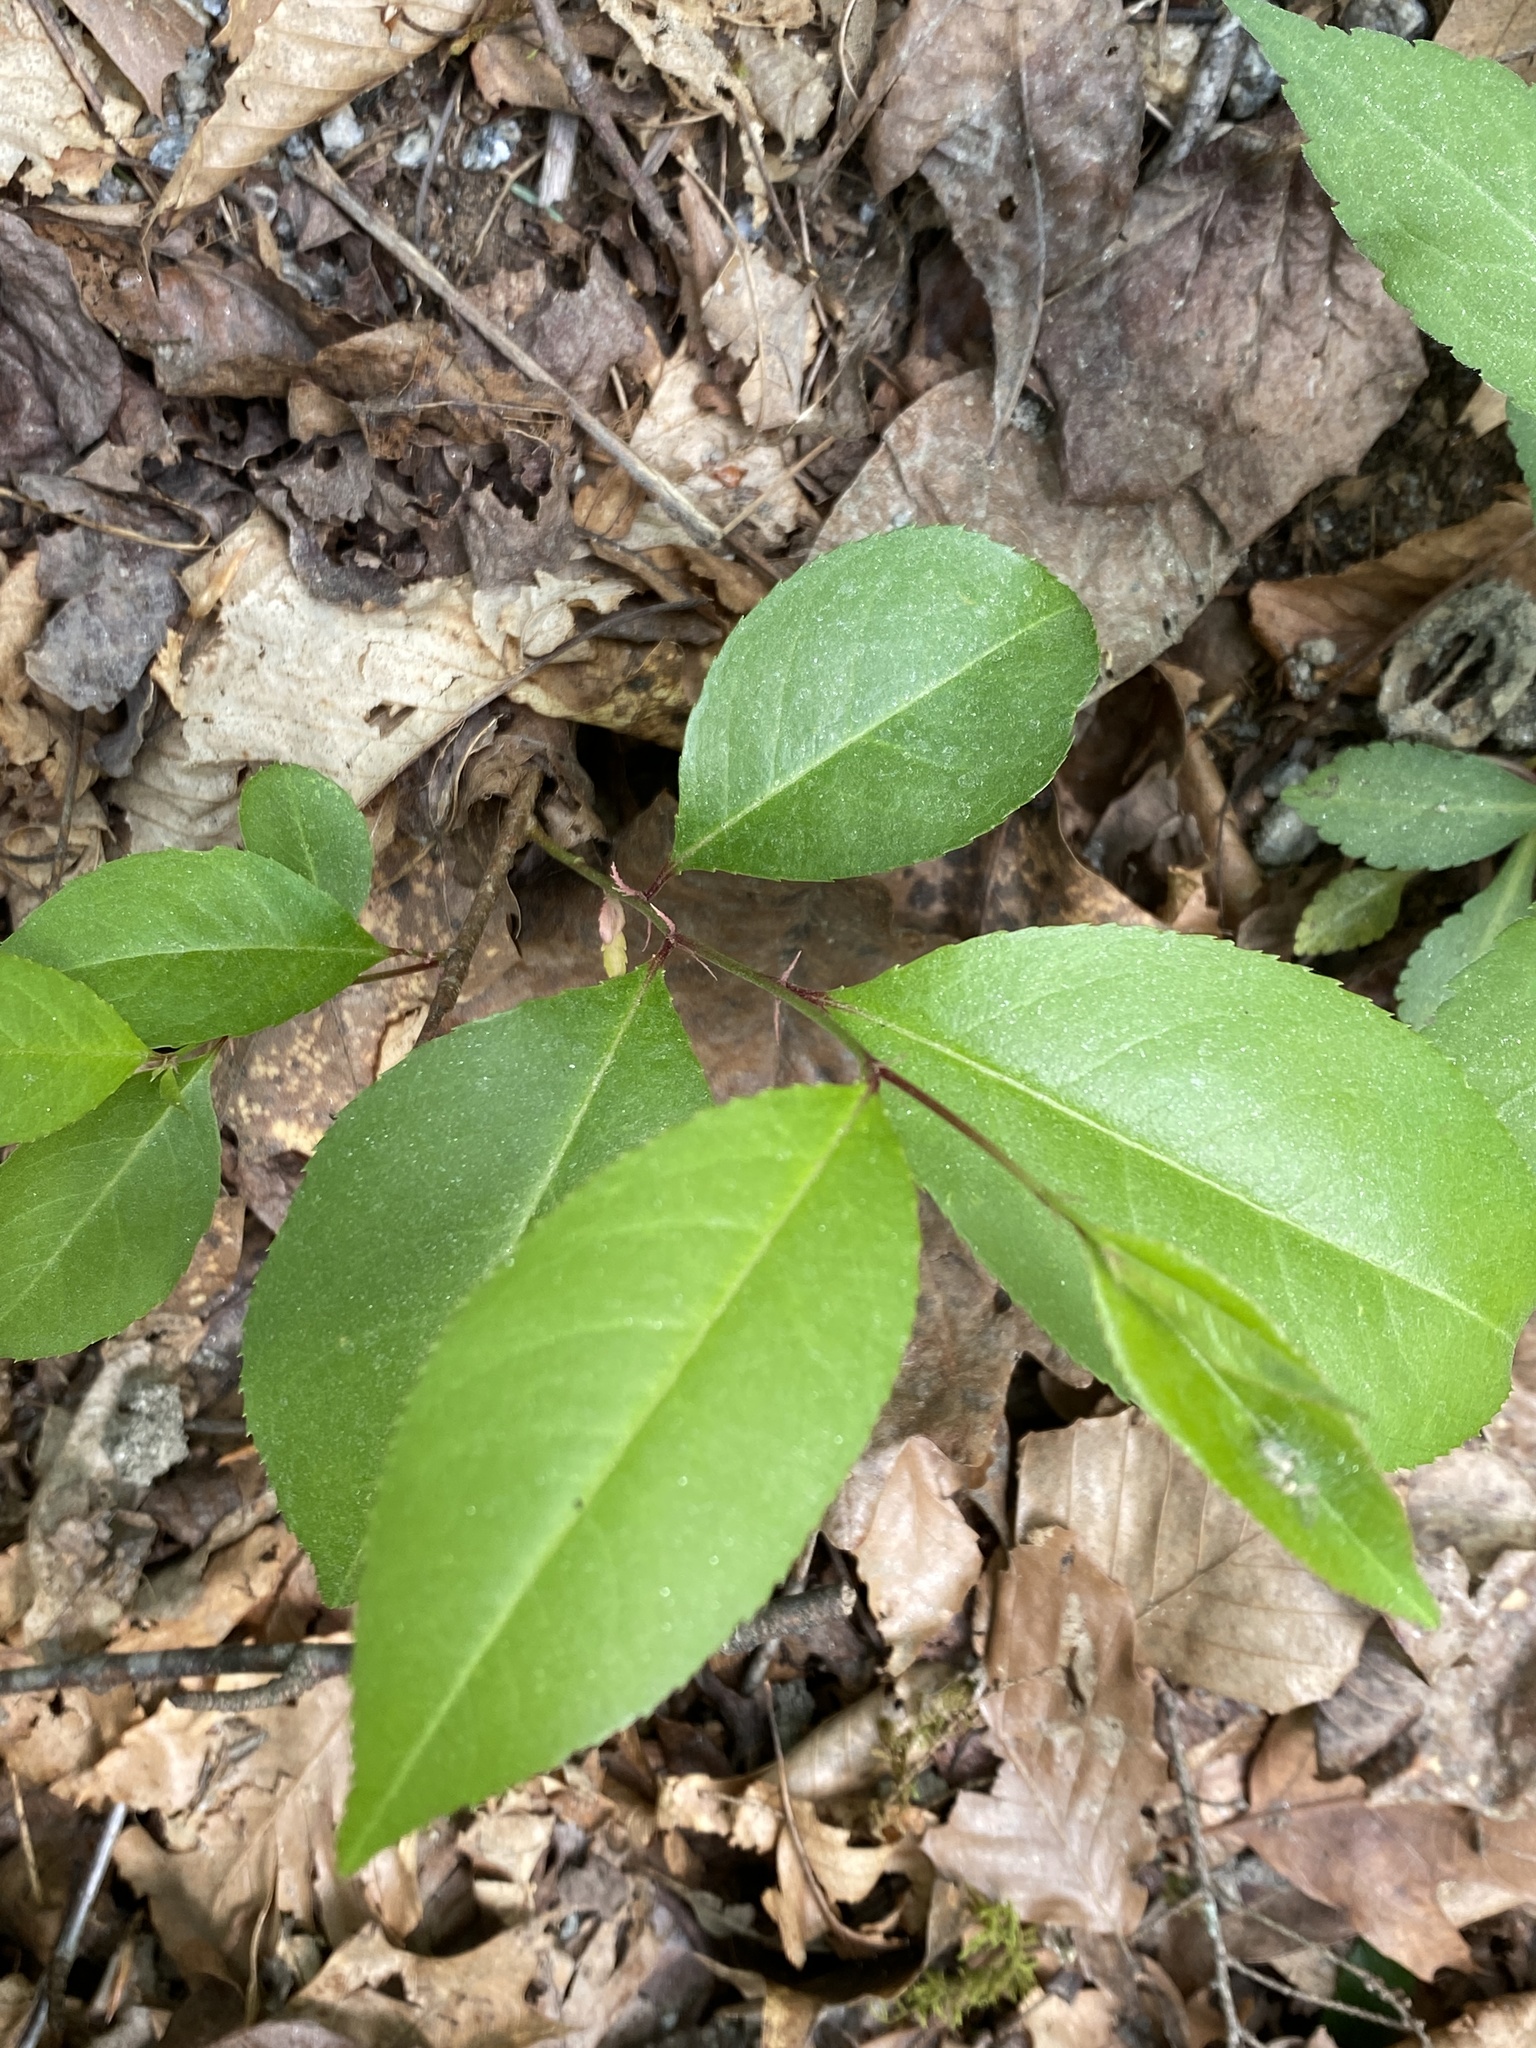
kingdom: Plantae
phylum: Tracheophyta
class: Magnoliopsida
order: Rosales
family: Rosaceae
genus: Prunus
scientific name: Prunus serotina
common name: Black cherry
